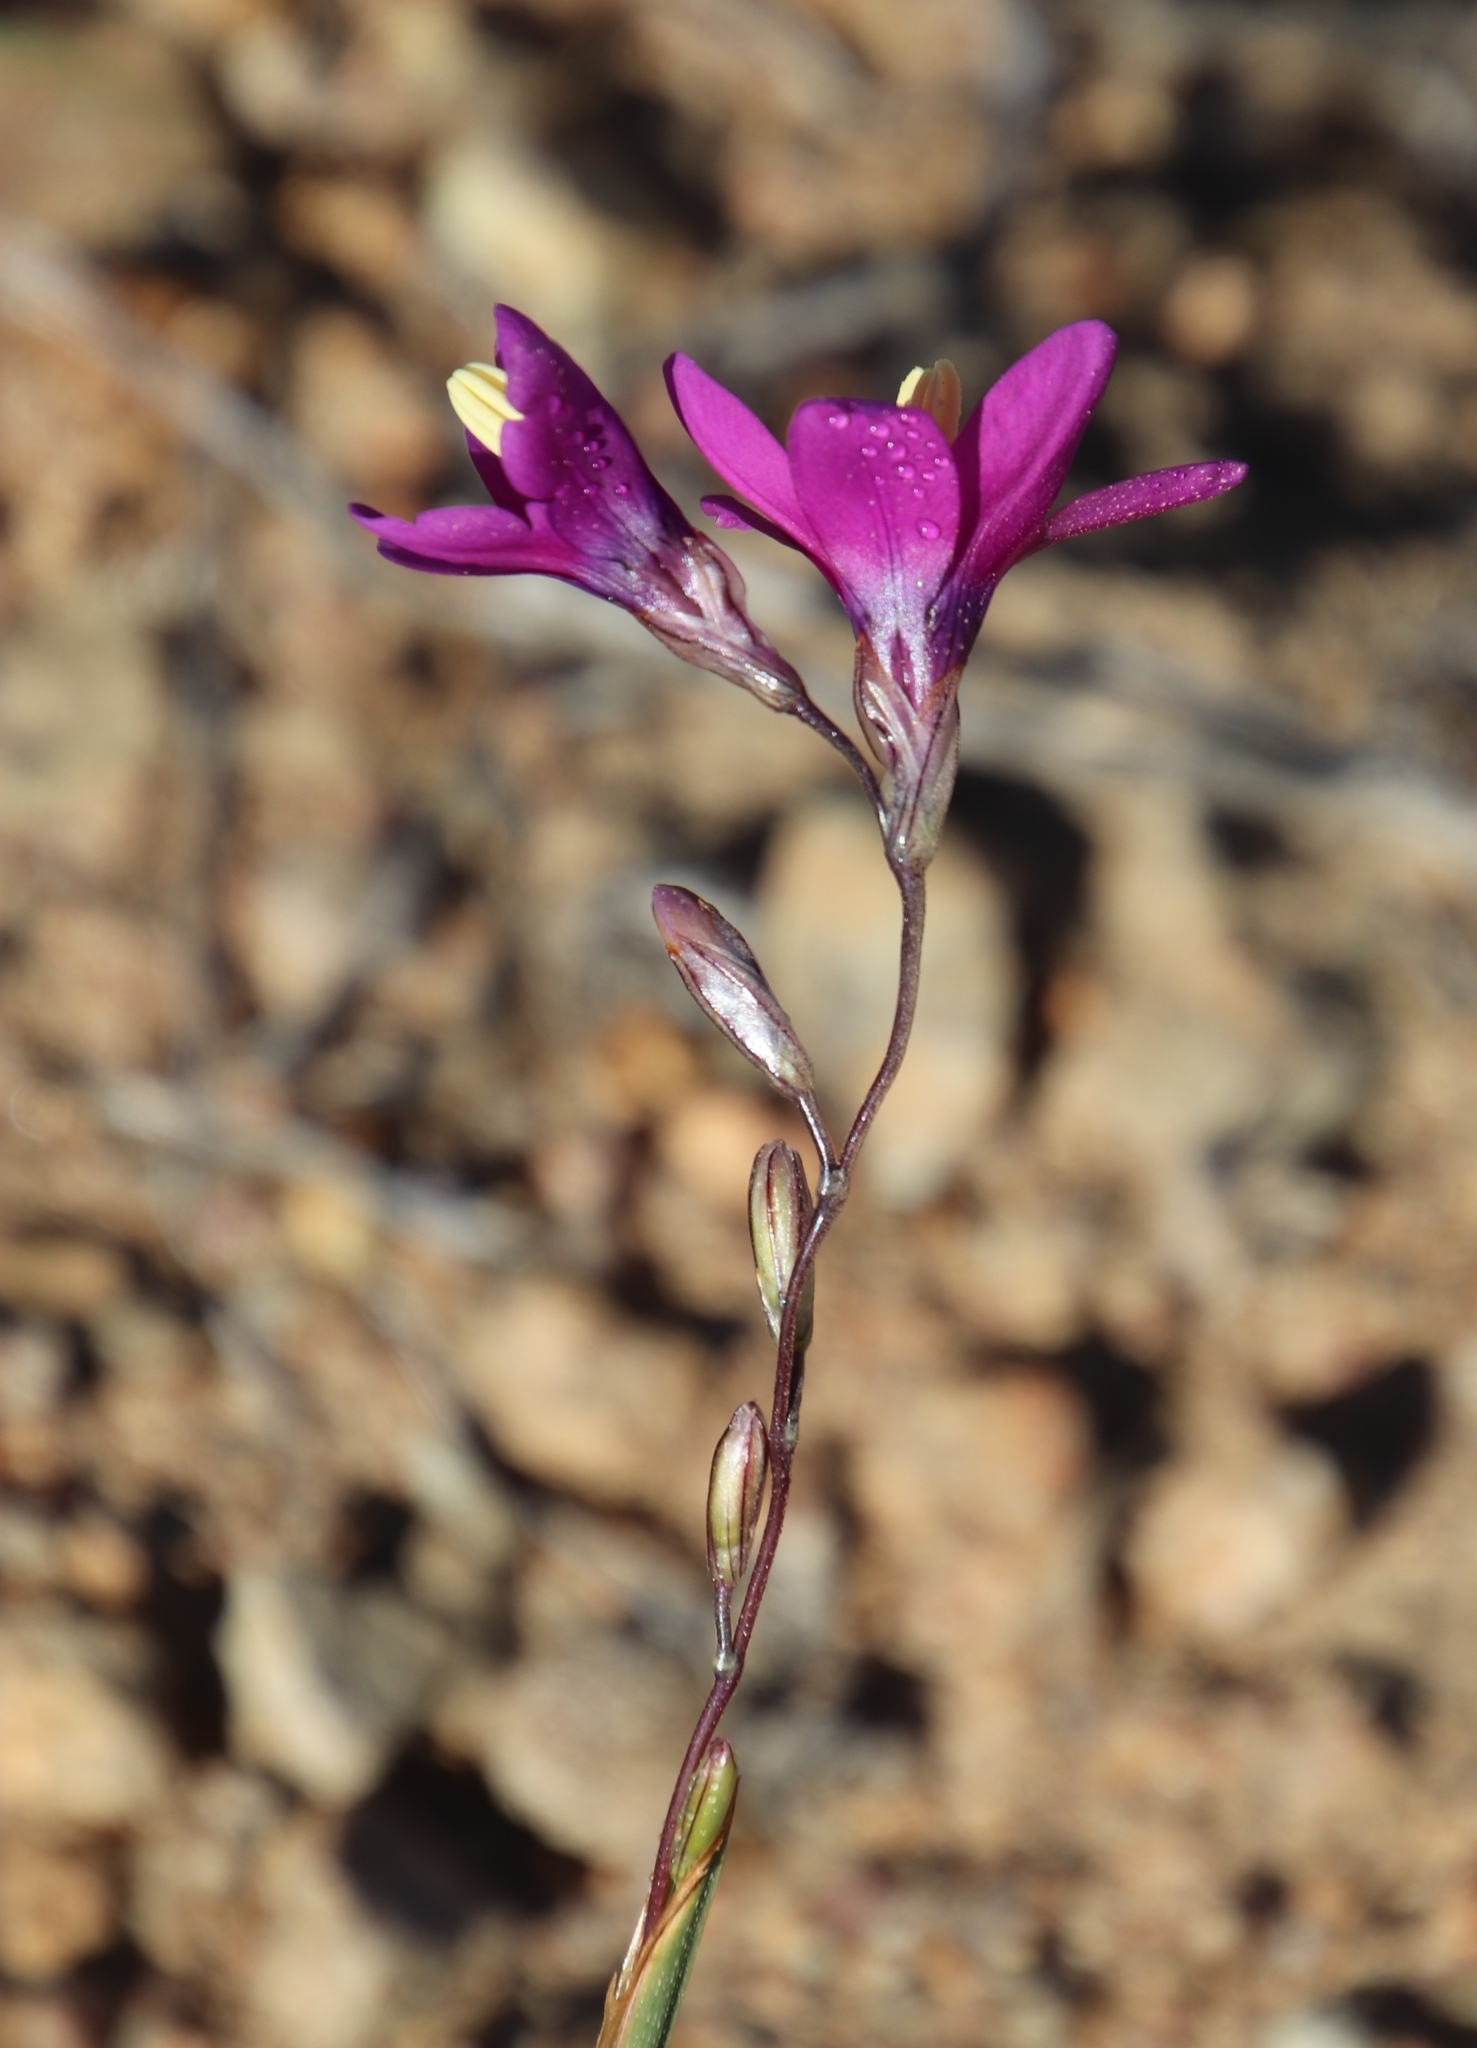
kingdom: Plantae
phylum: Tracheophyta
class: Liliopsida
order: Asparagales
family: Iridaceae
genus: Ixia
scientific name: Ixia ramulosa
